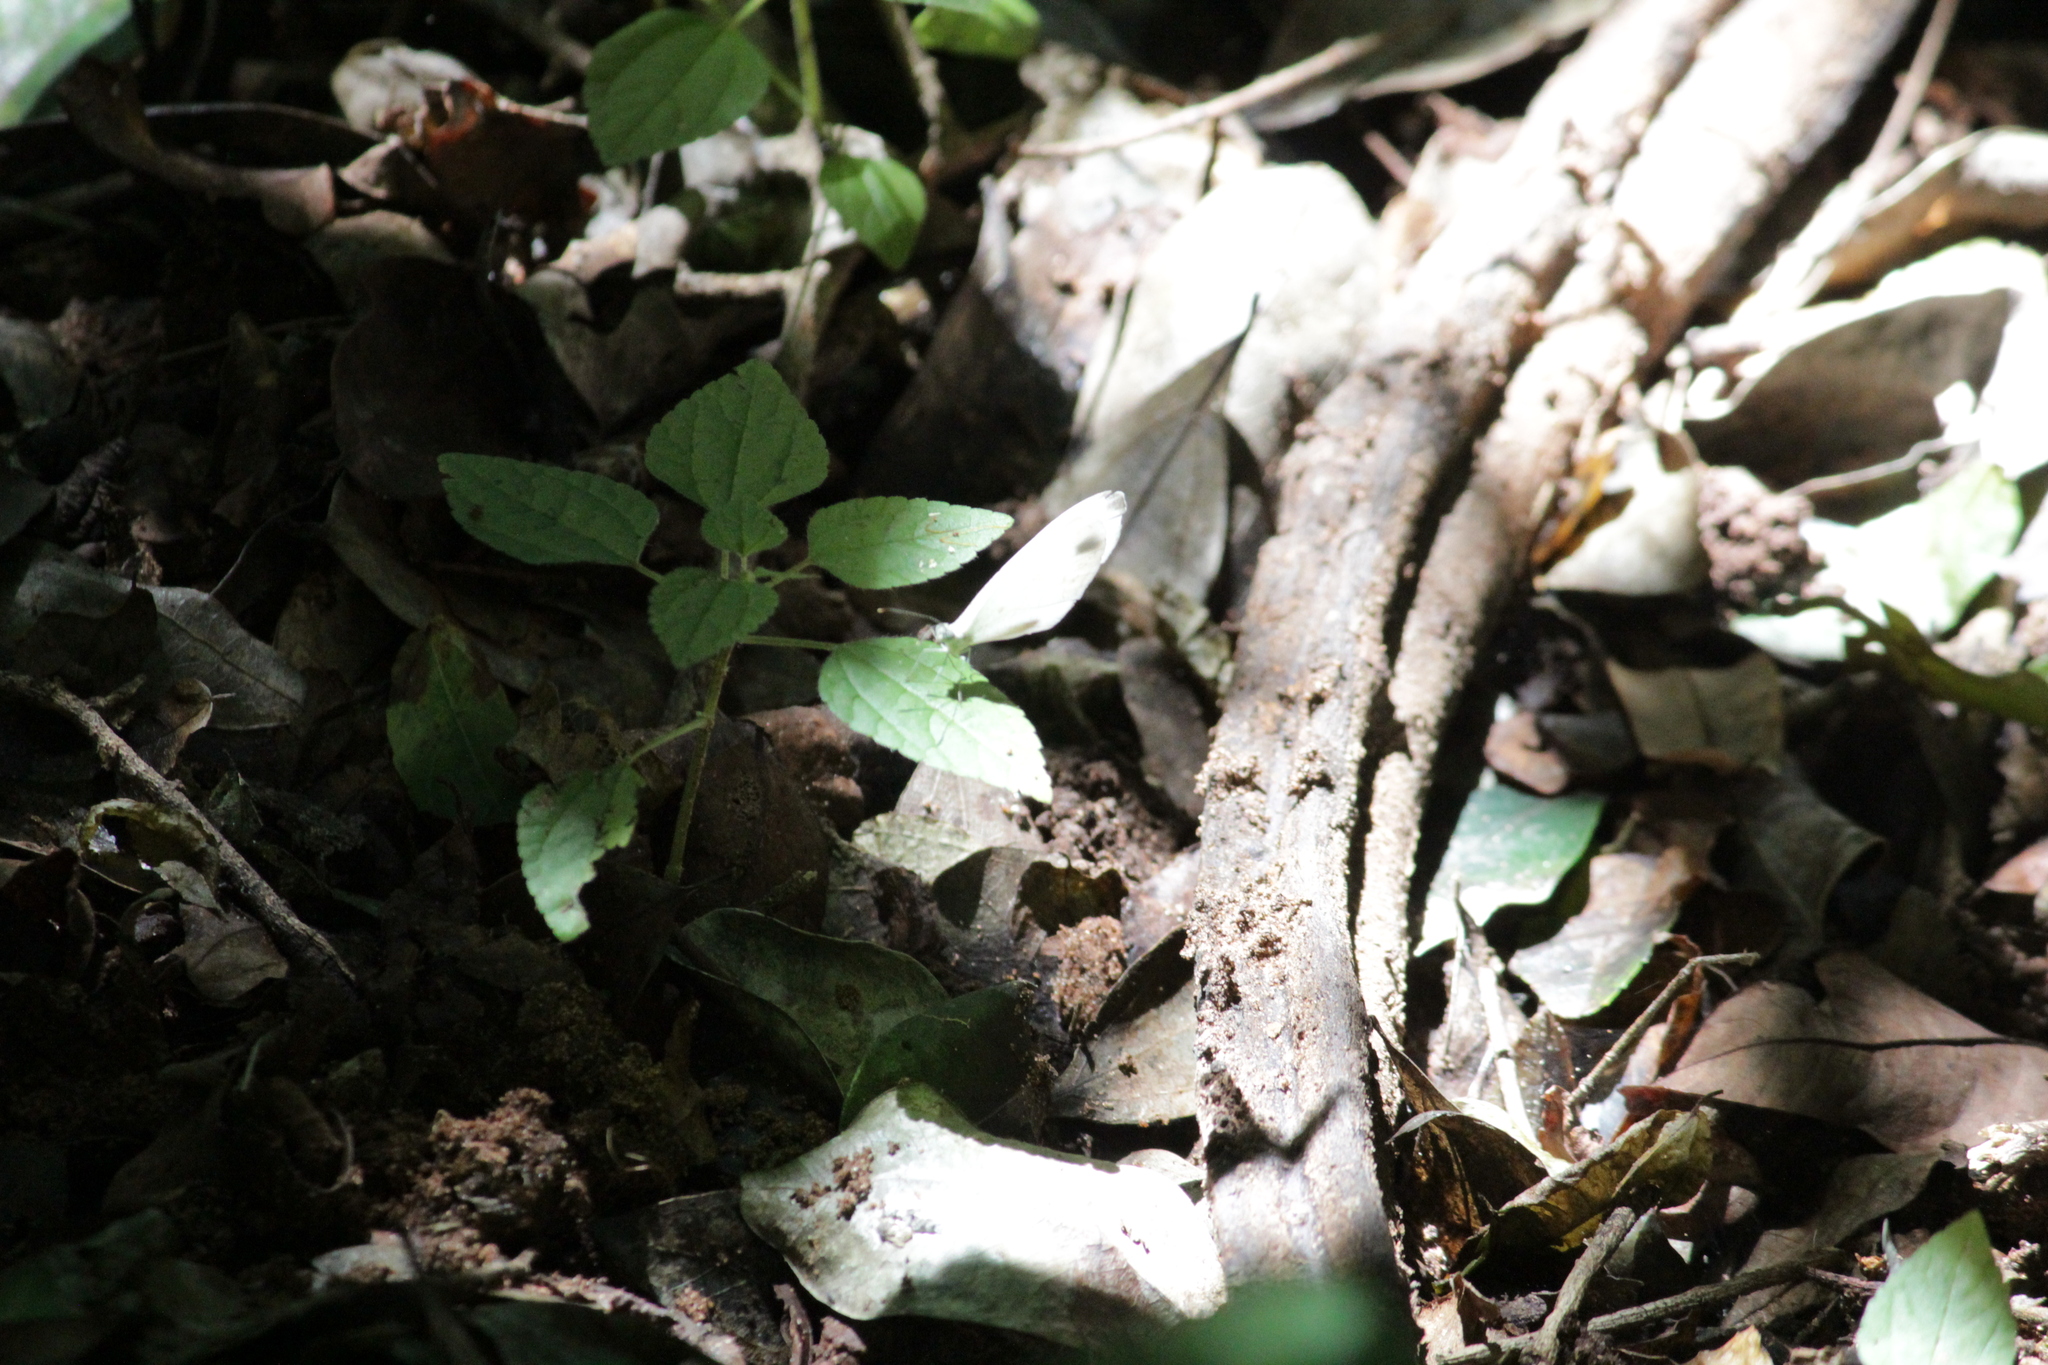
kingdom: Animalia
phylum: Arthropoda
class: Insecta
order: Lepidoptera
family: Pieridae
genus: Leptosia
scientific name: Leptosia alcesta
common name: African wood white
